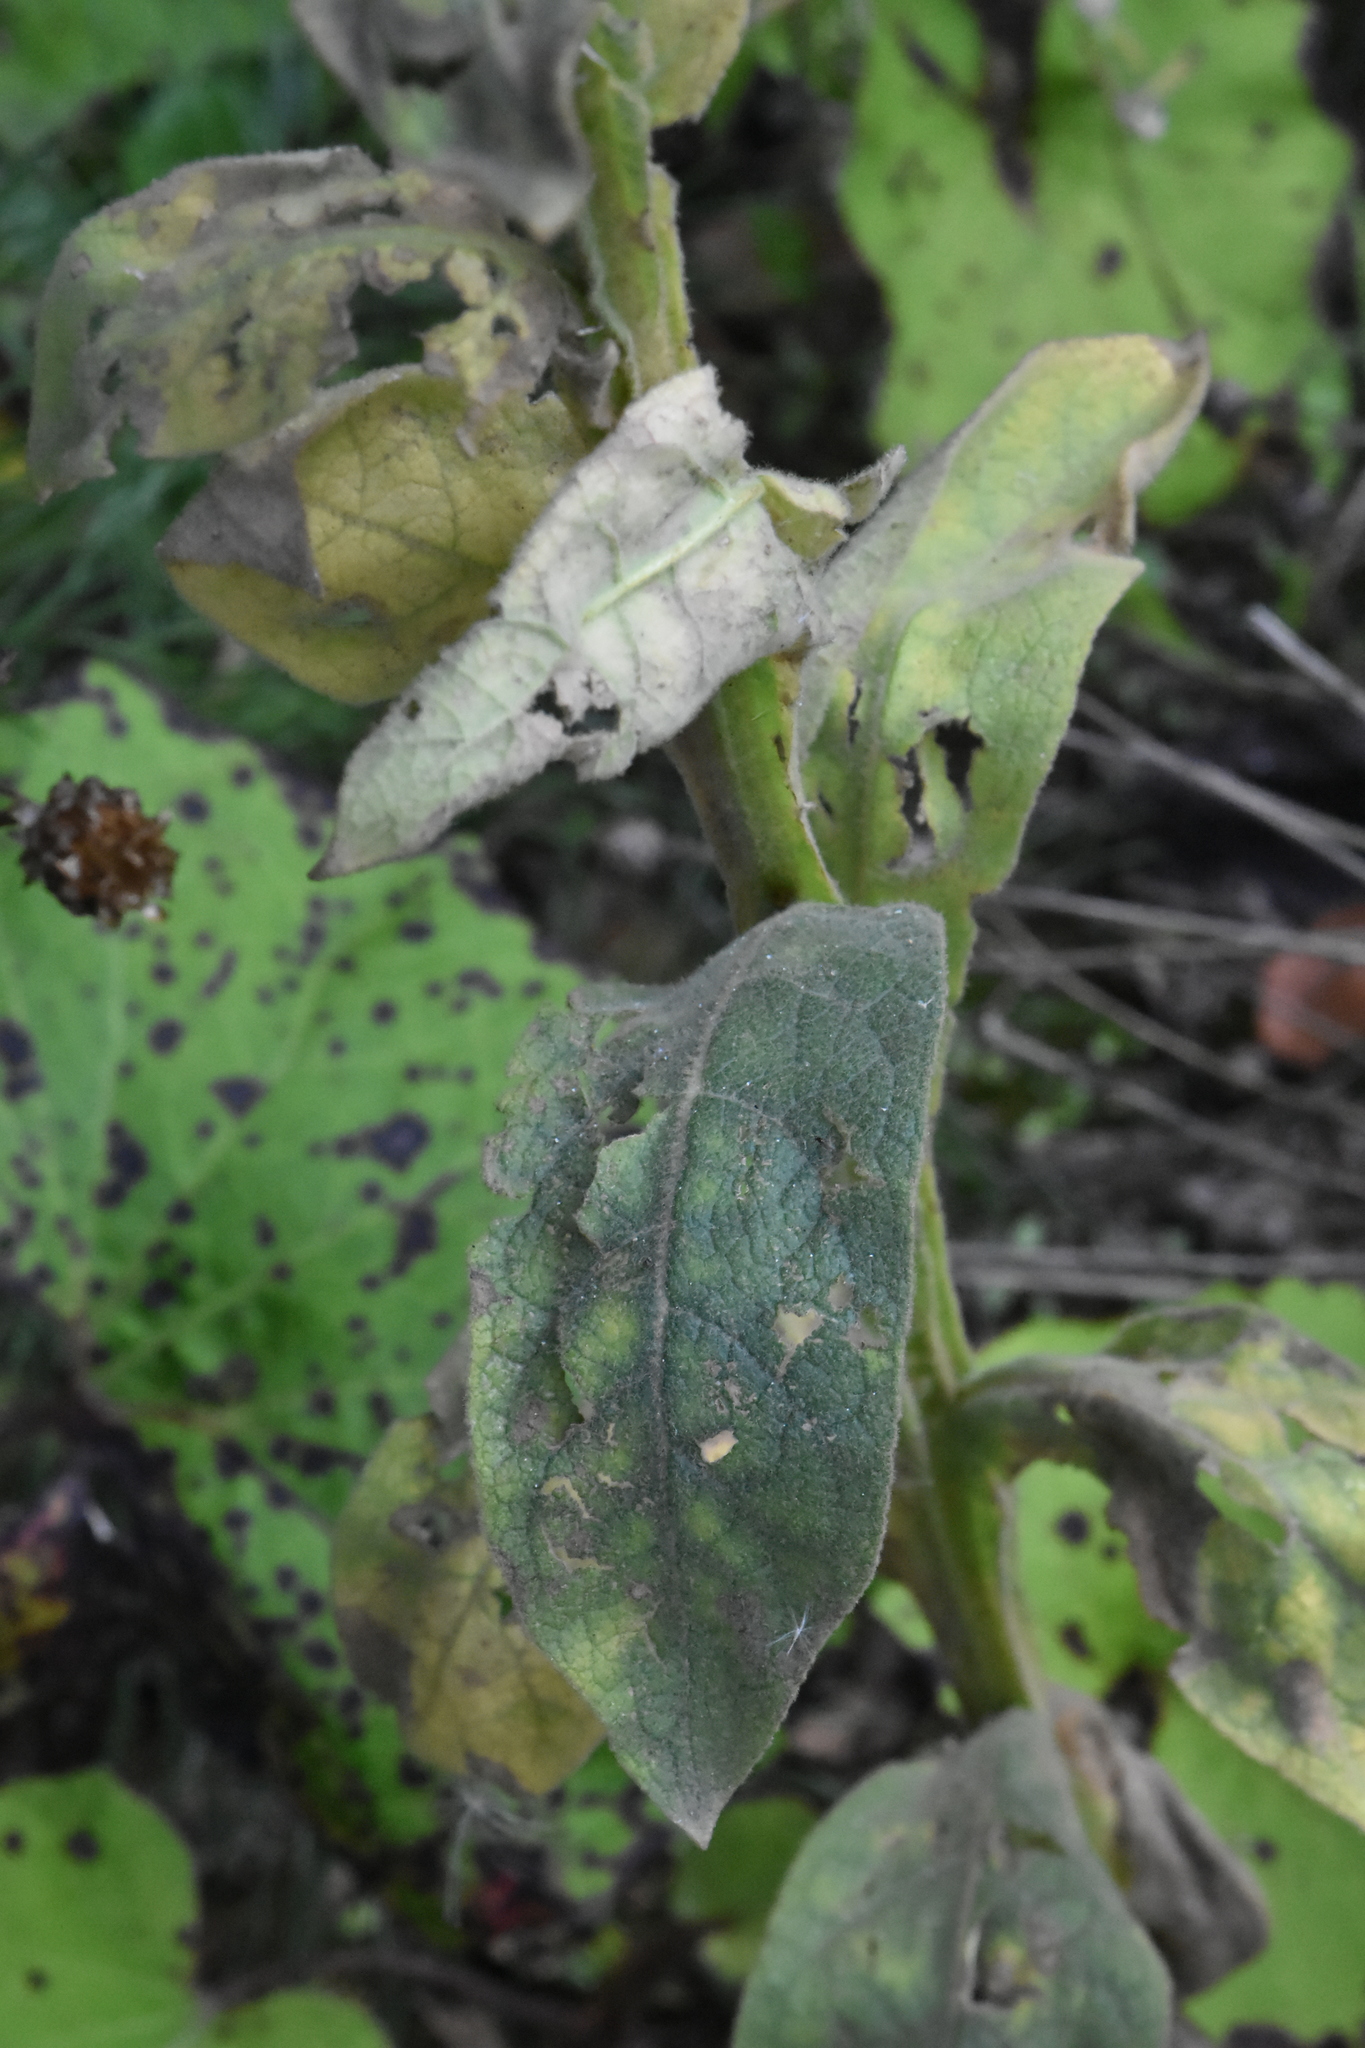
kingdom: Plantae
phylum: Tracheophyta
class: Magnoliopsida
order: Lamiales
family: Scrophulariaceae
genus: Verbascum
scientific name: Verbascum thapsus
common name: Common mullein
